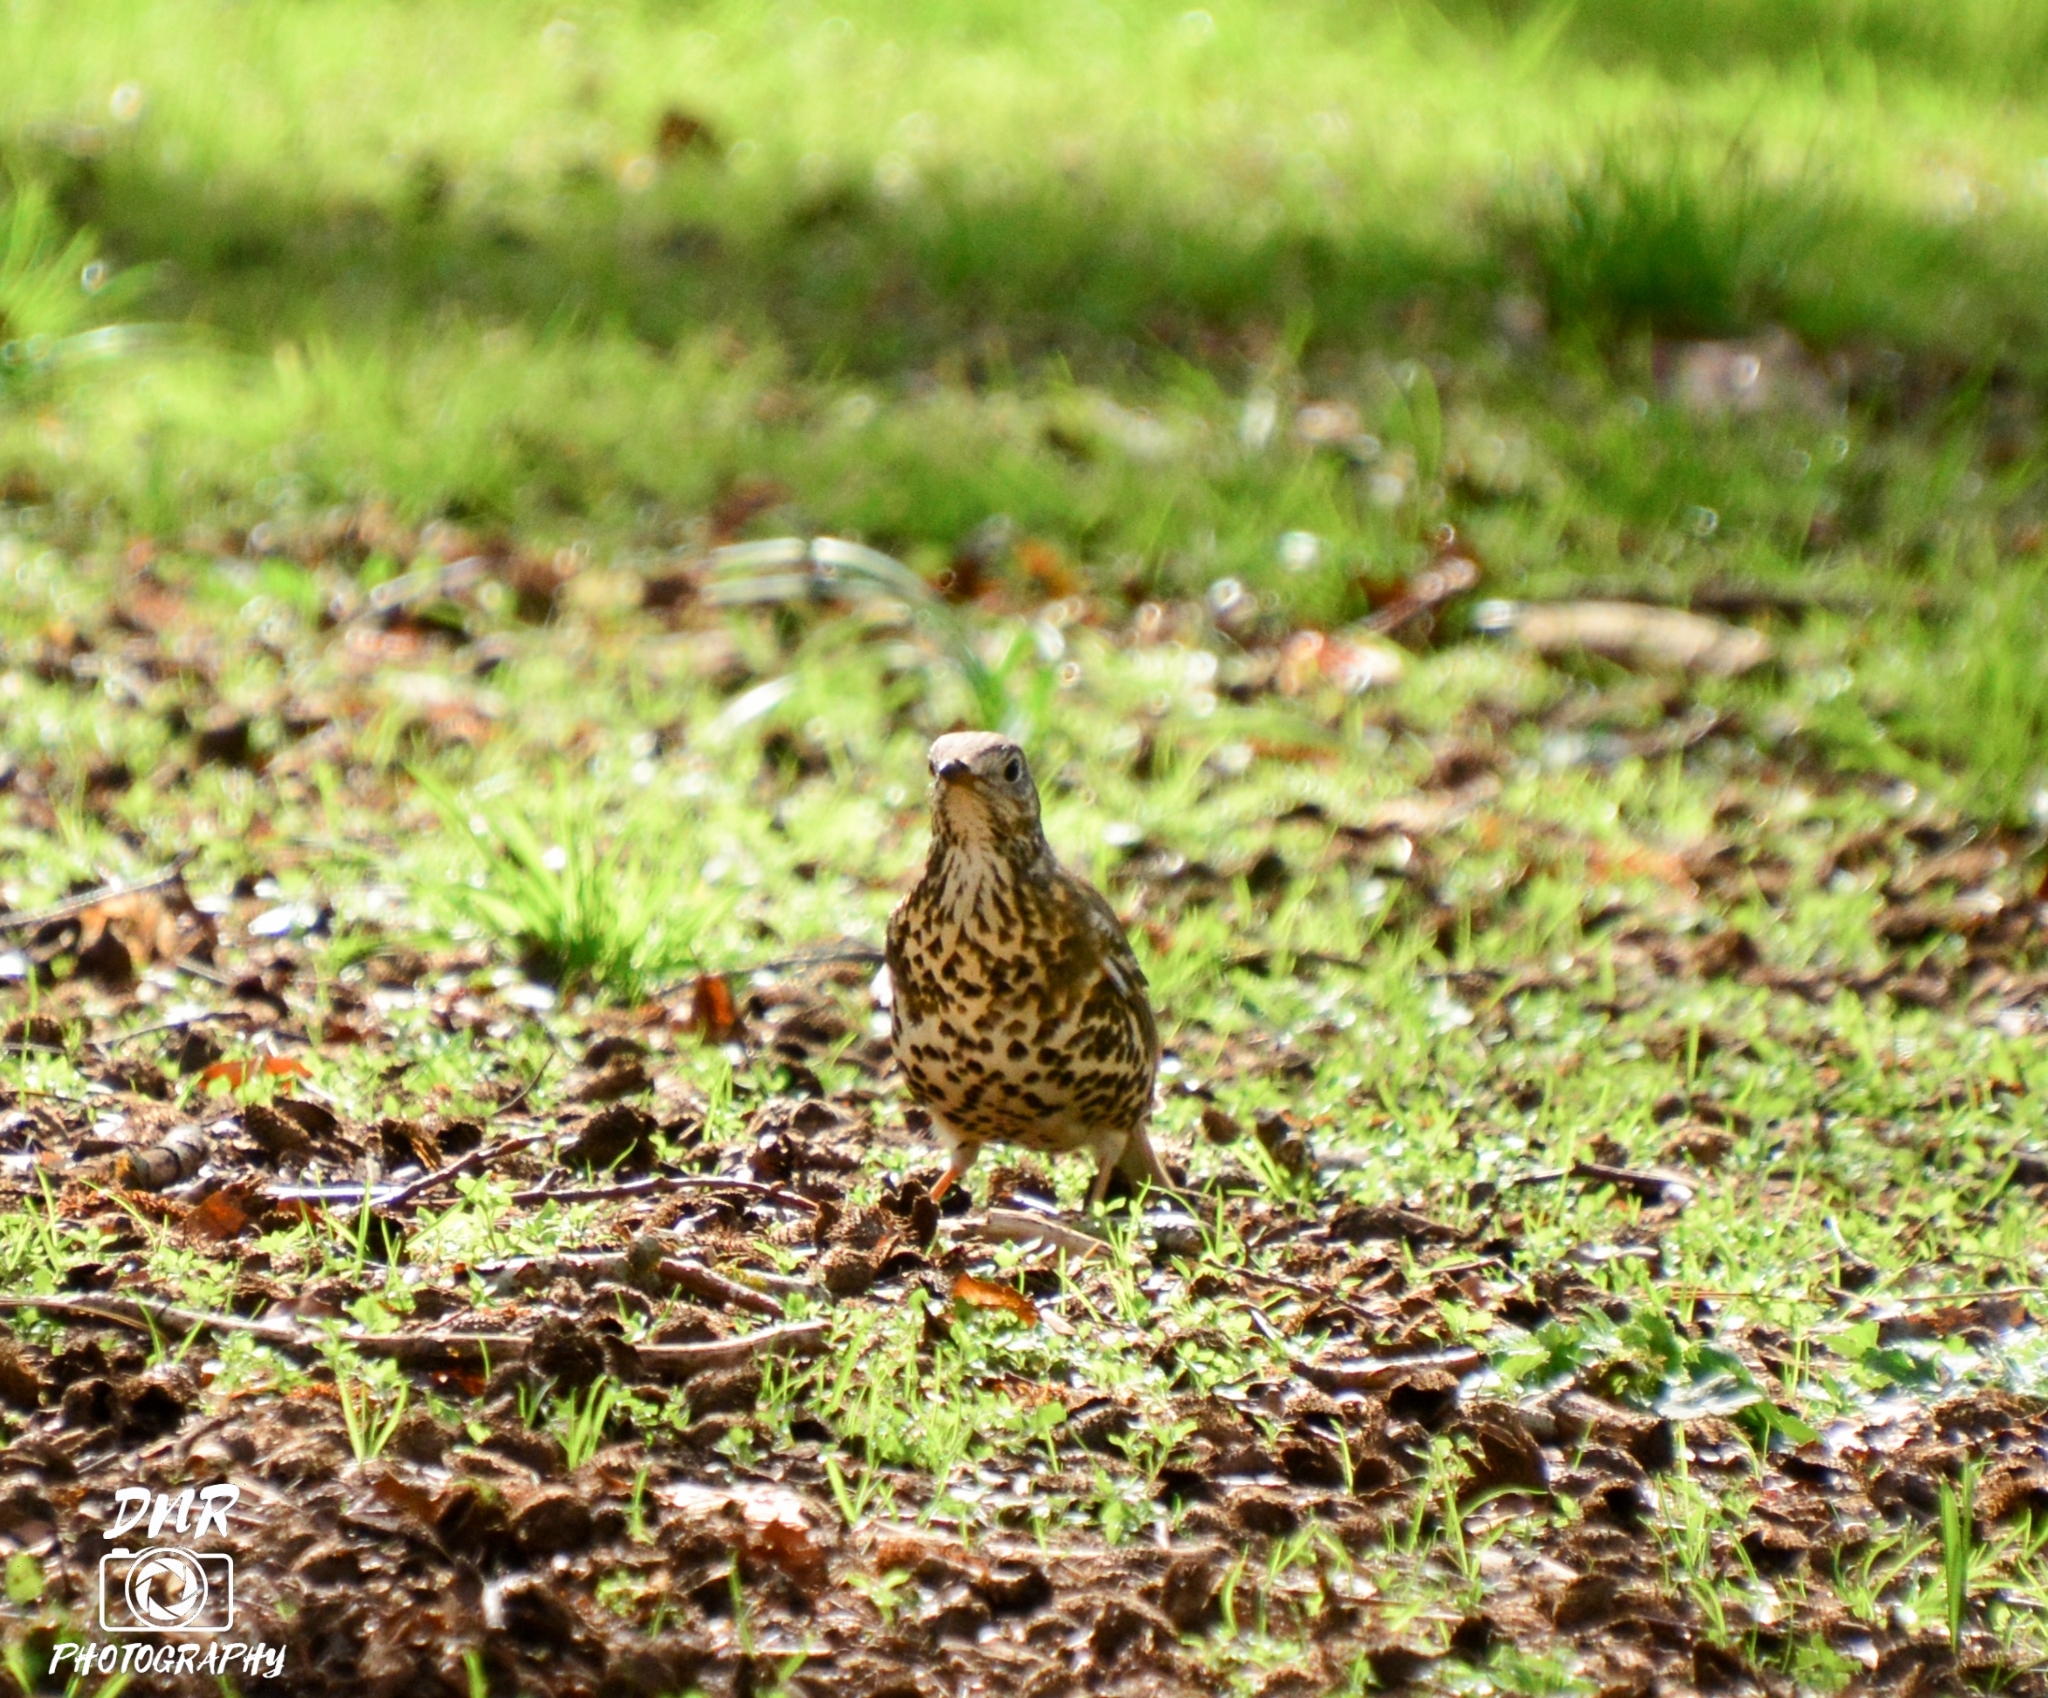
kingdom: Animalia
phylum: Chordata
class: Aves
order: Passeriformes
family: Turdidae
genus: Turdus
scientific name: Turdus viscivorus
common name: Mistle thrush
